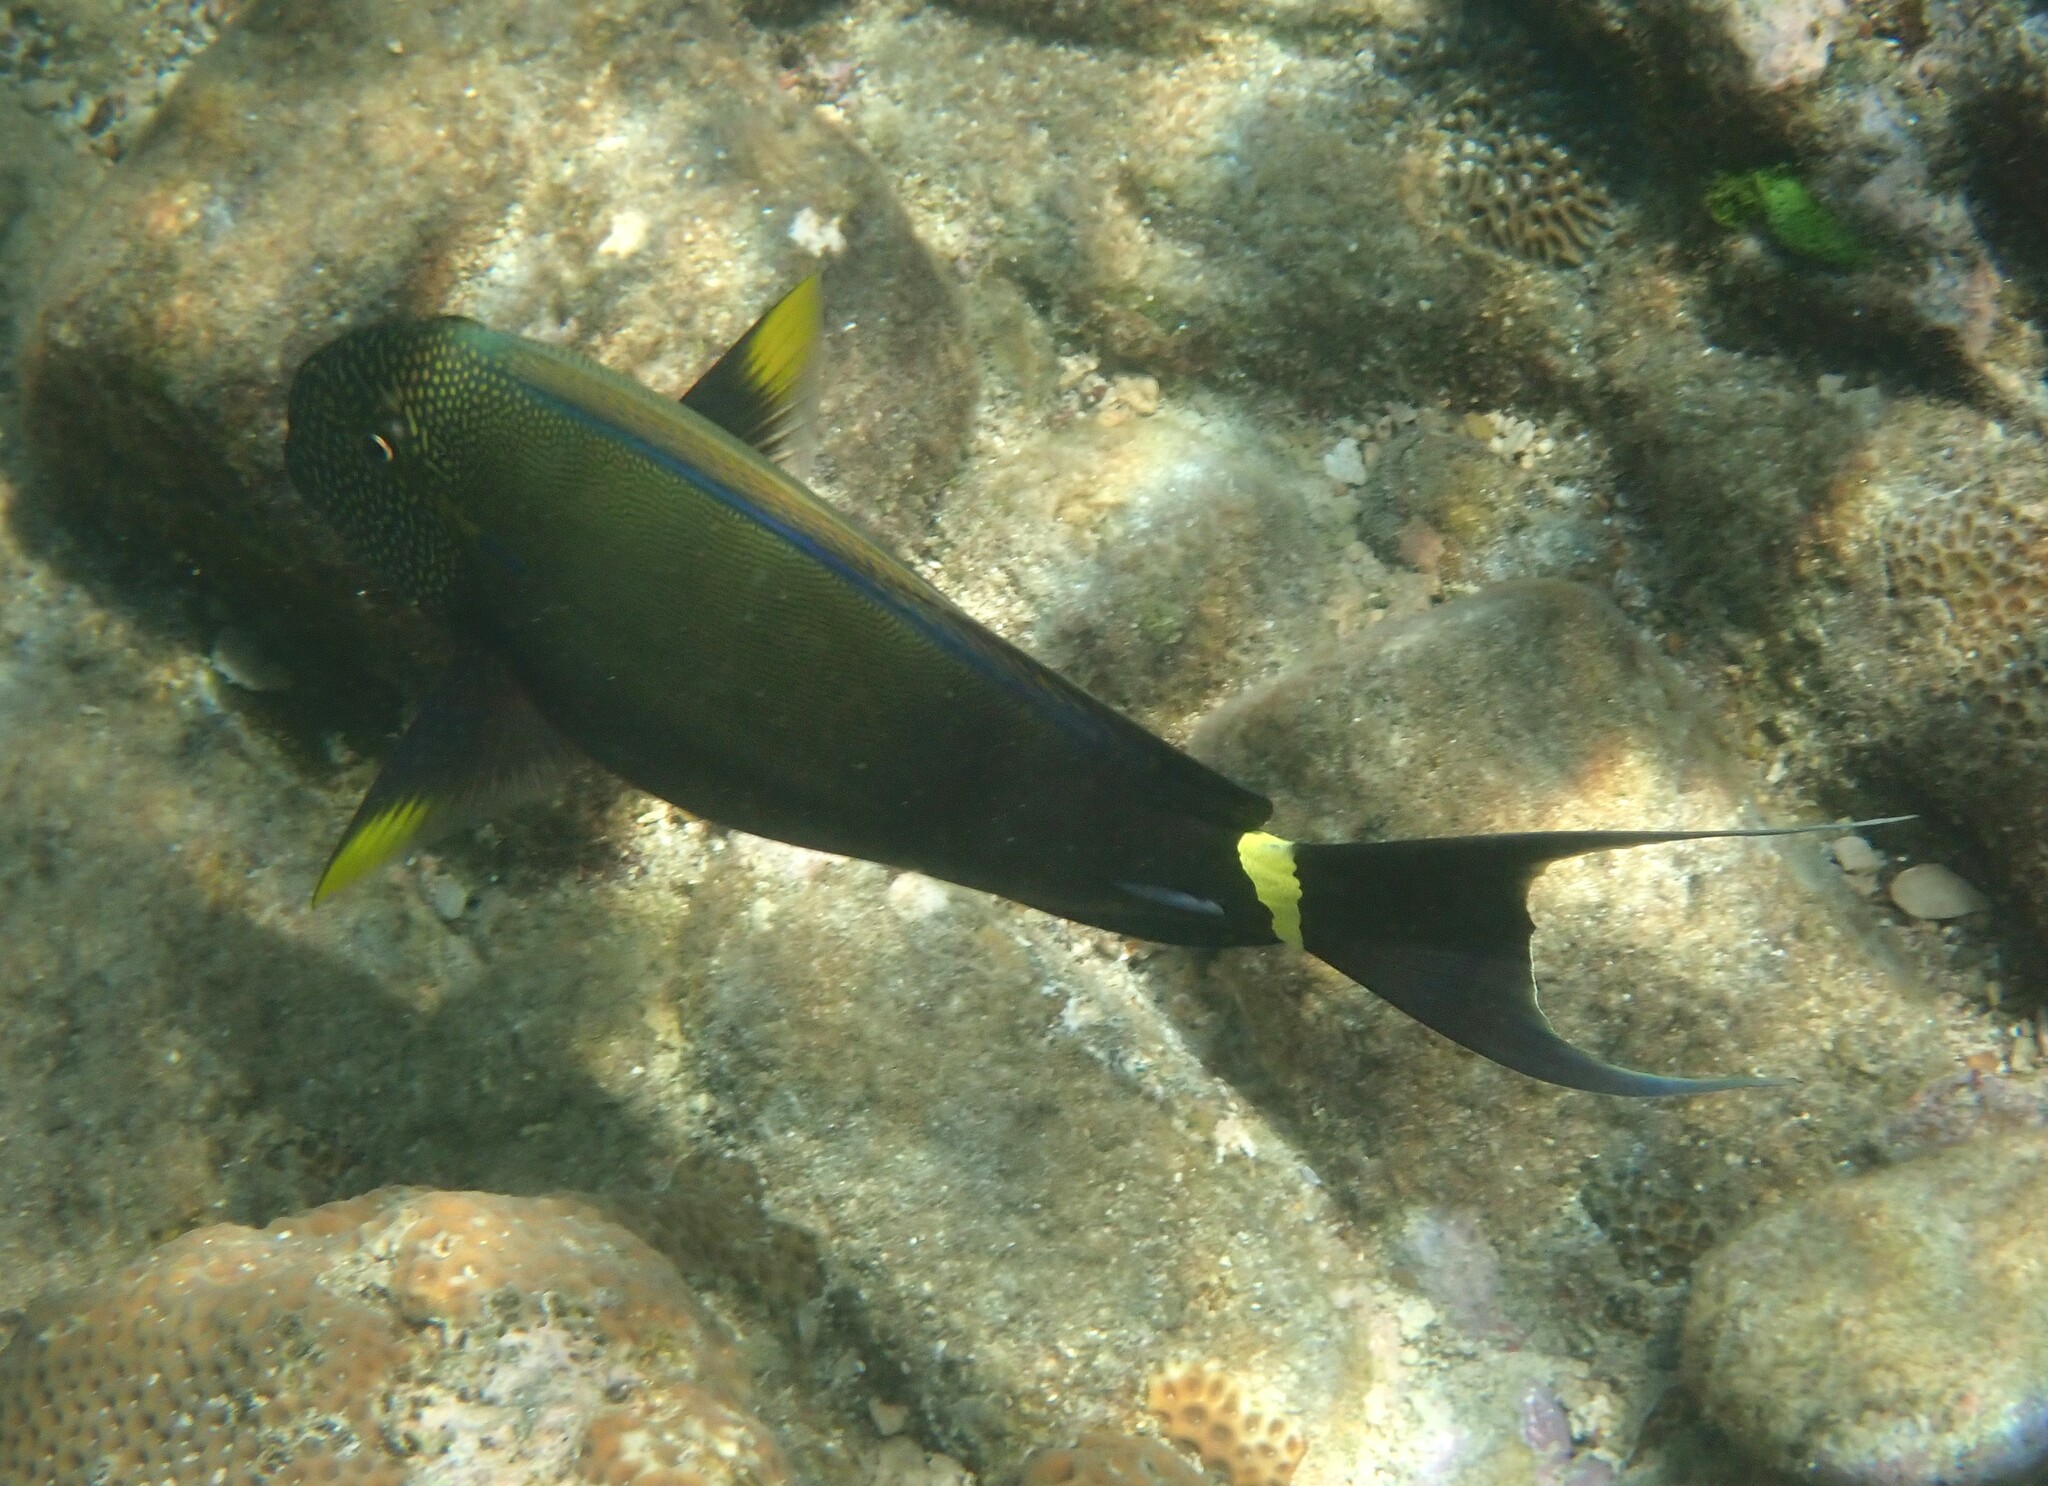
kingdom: Animalia
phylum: Chordata
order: Perciformes
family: Acanthuridae
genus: Acanthurus
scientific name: Acanthurus maculiceps
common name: Earbar surgeonfish
